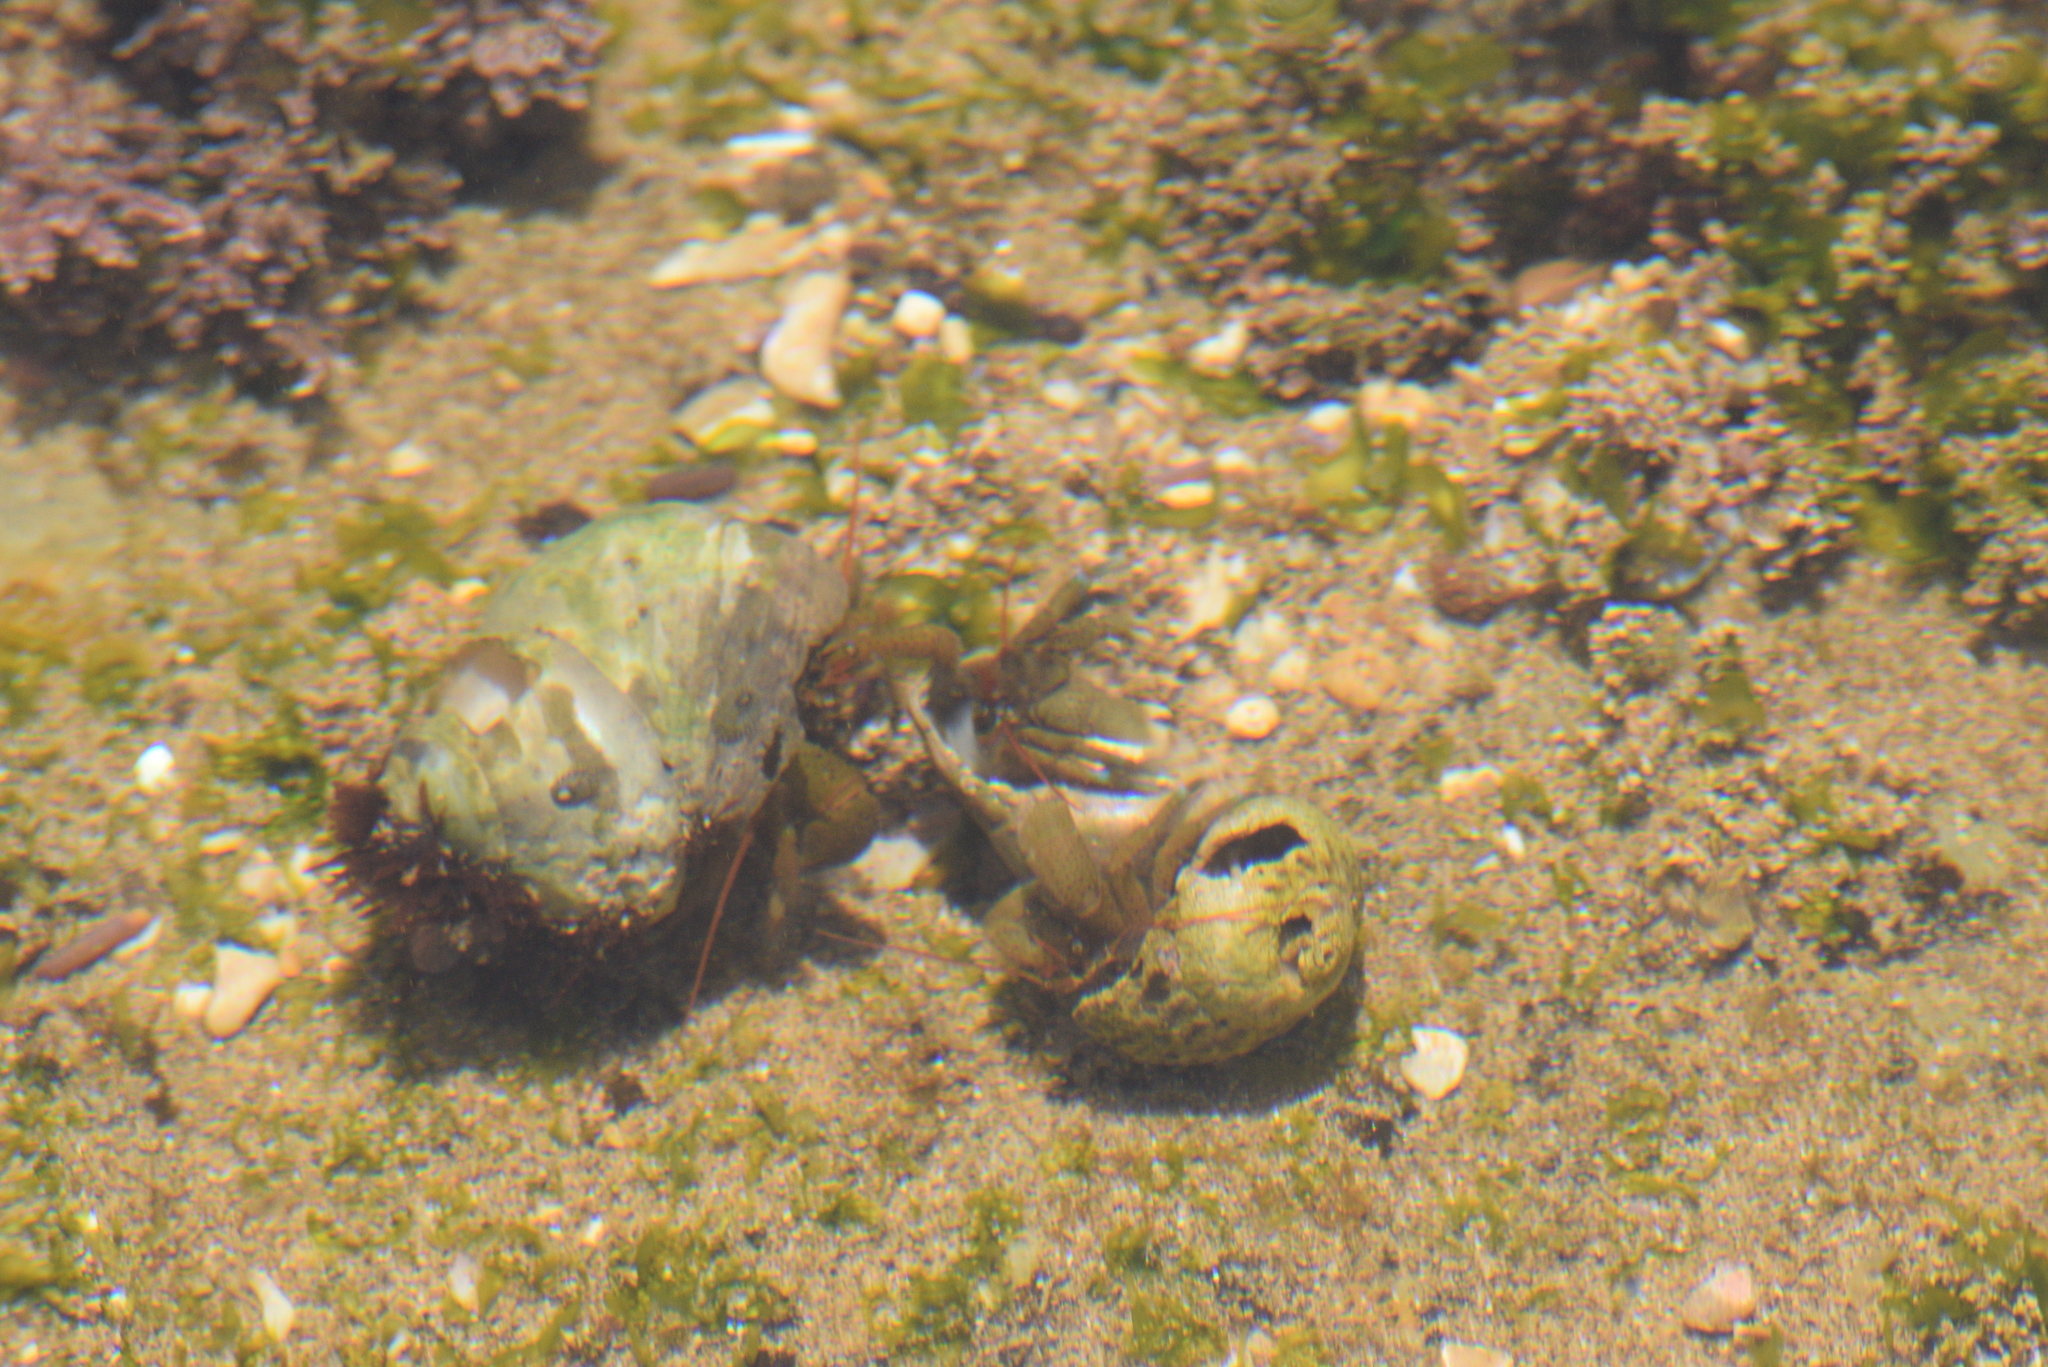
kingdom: Animalia
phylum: Arthropoda
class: Malacostraca
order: Decapoda
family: Paguridae
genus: Pagurus
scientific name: Pagurus samuelis
